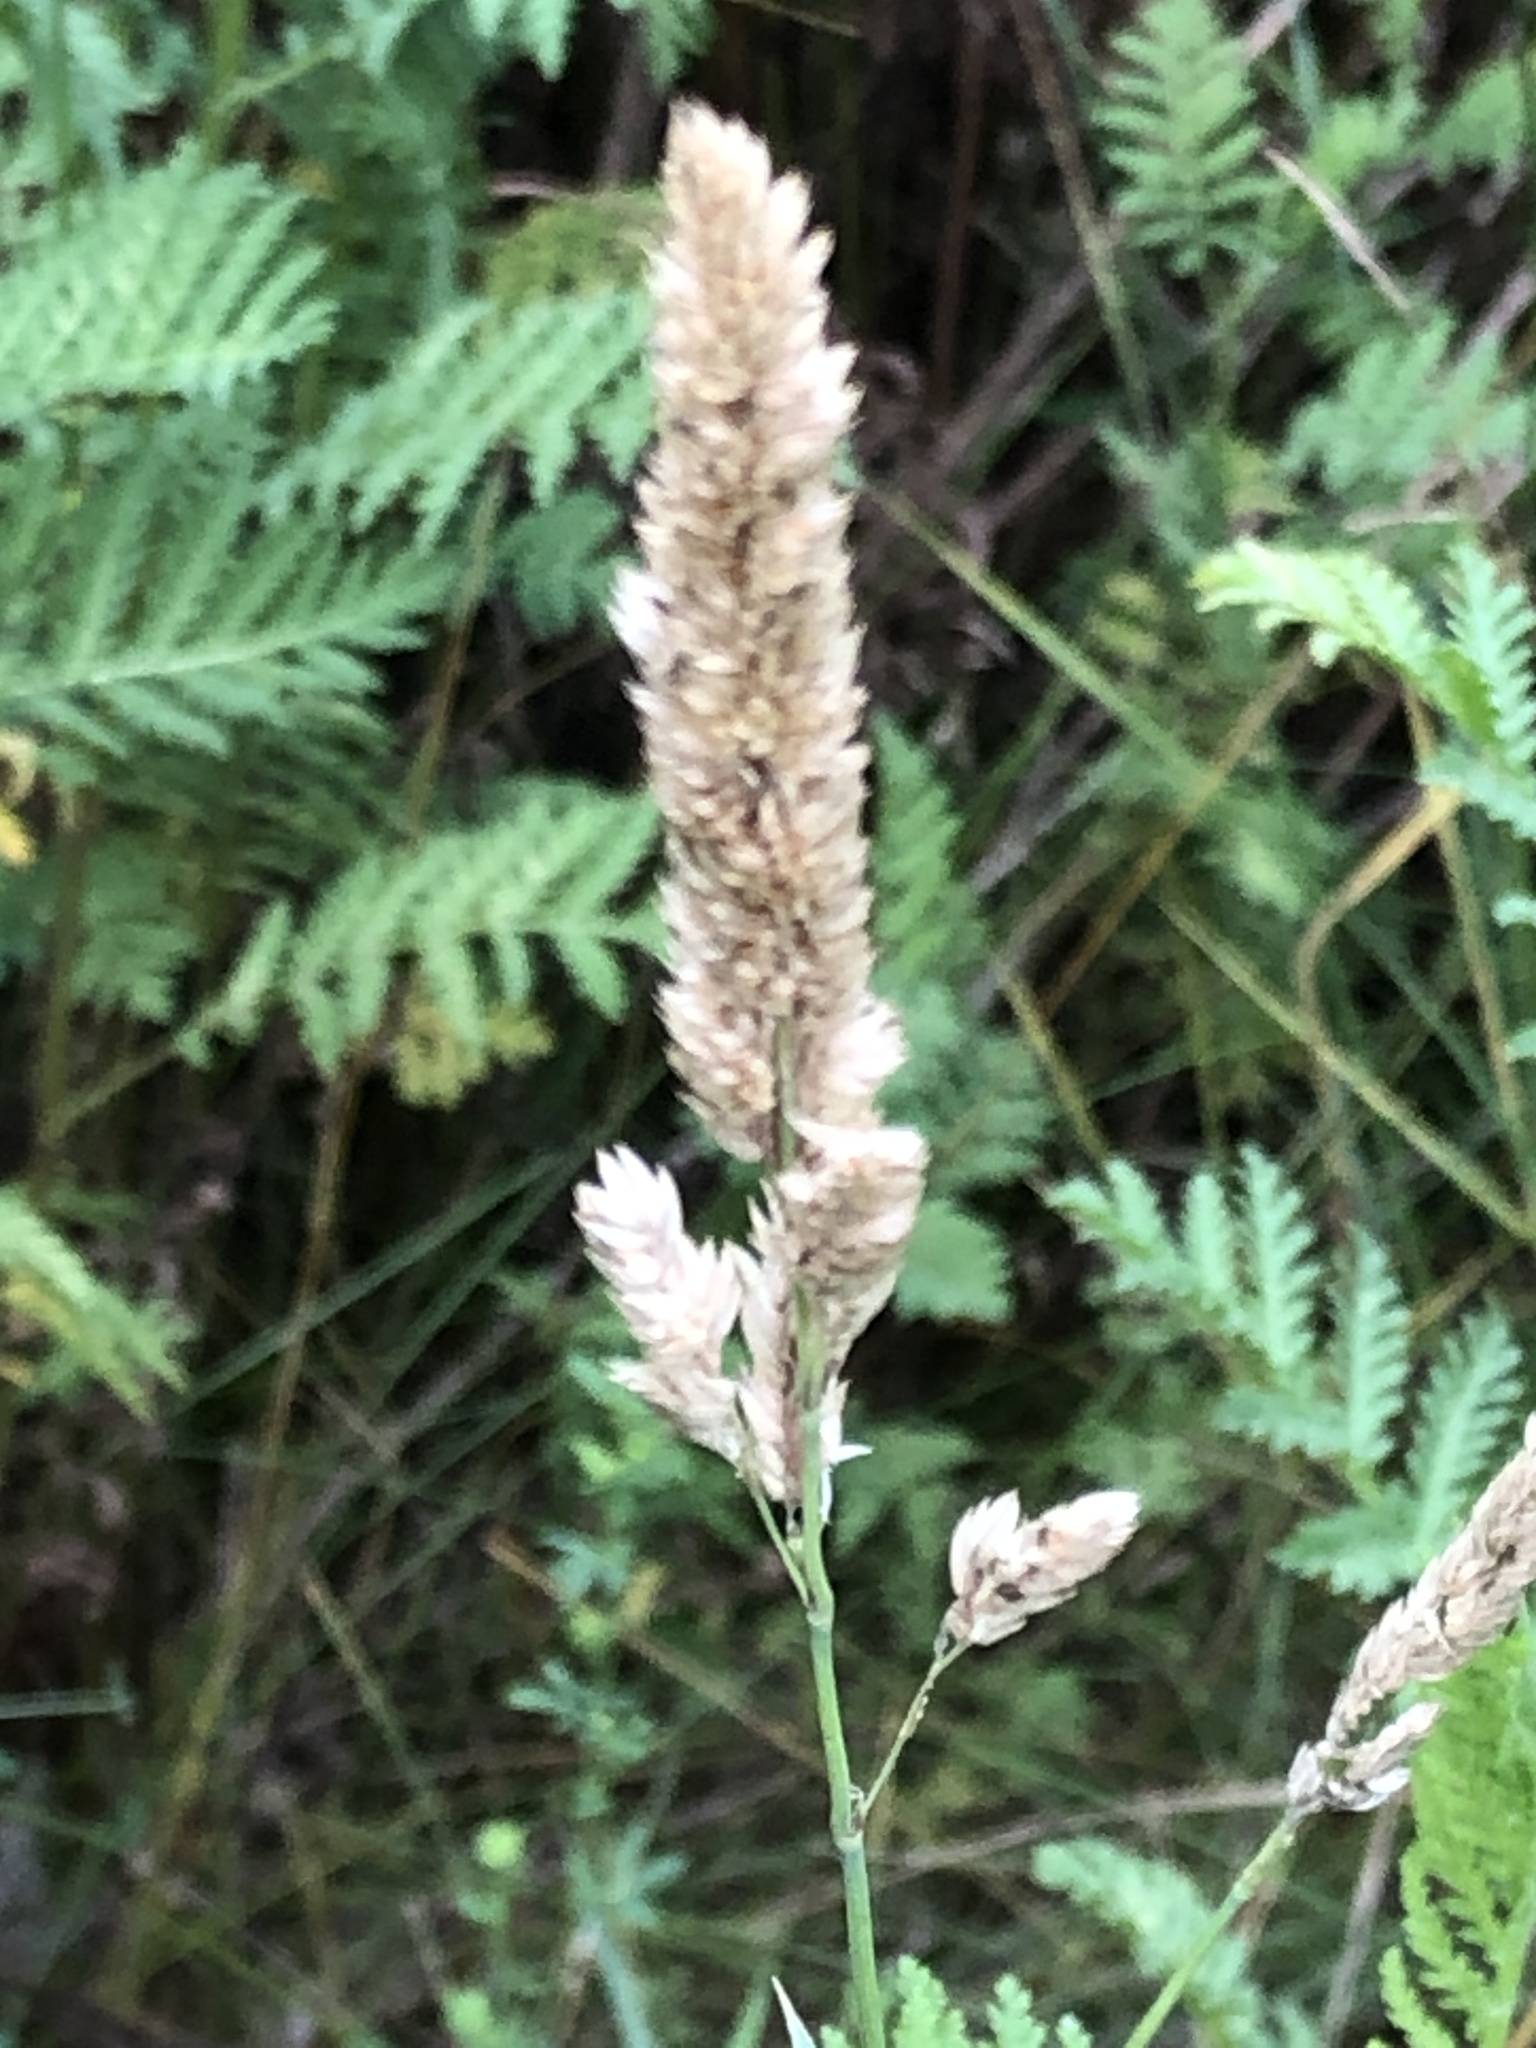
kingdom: Plantae
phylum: Tracheophyta
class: Liliopsida
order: Poales
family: Poaceae
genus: Phalaris
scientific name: Phalaris arundinacea
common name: Reed canary-grass
